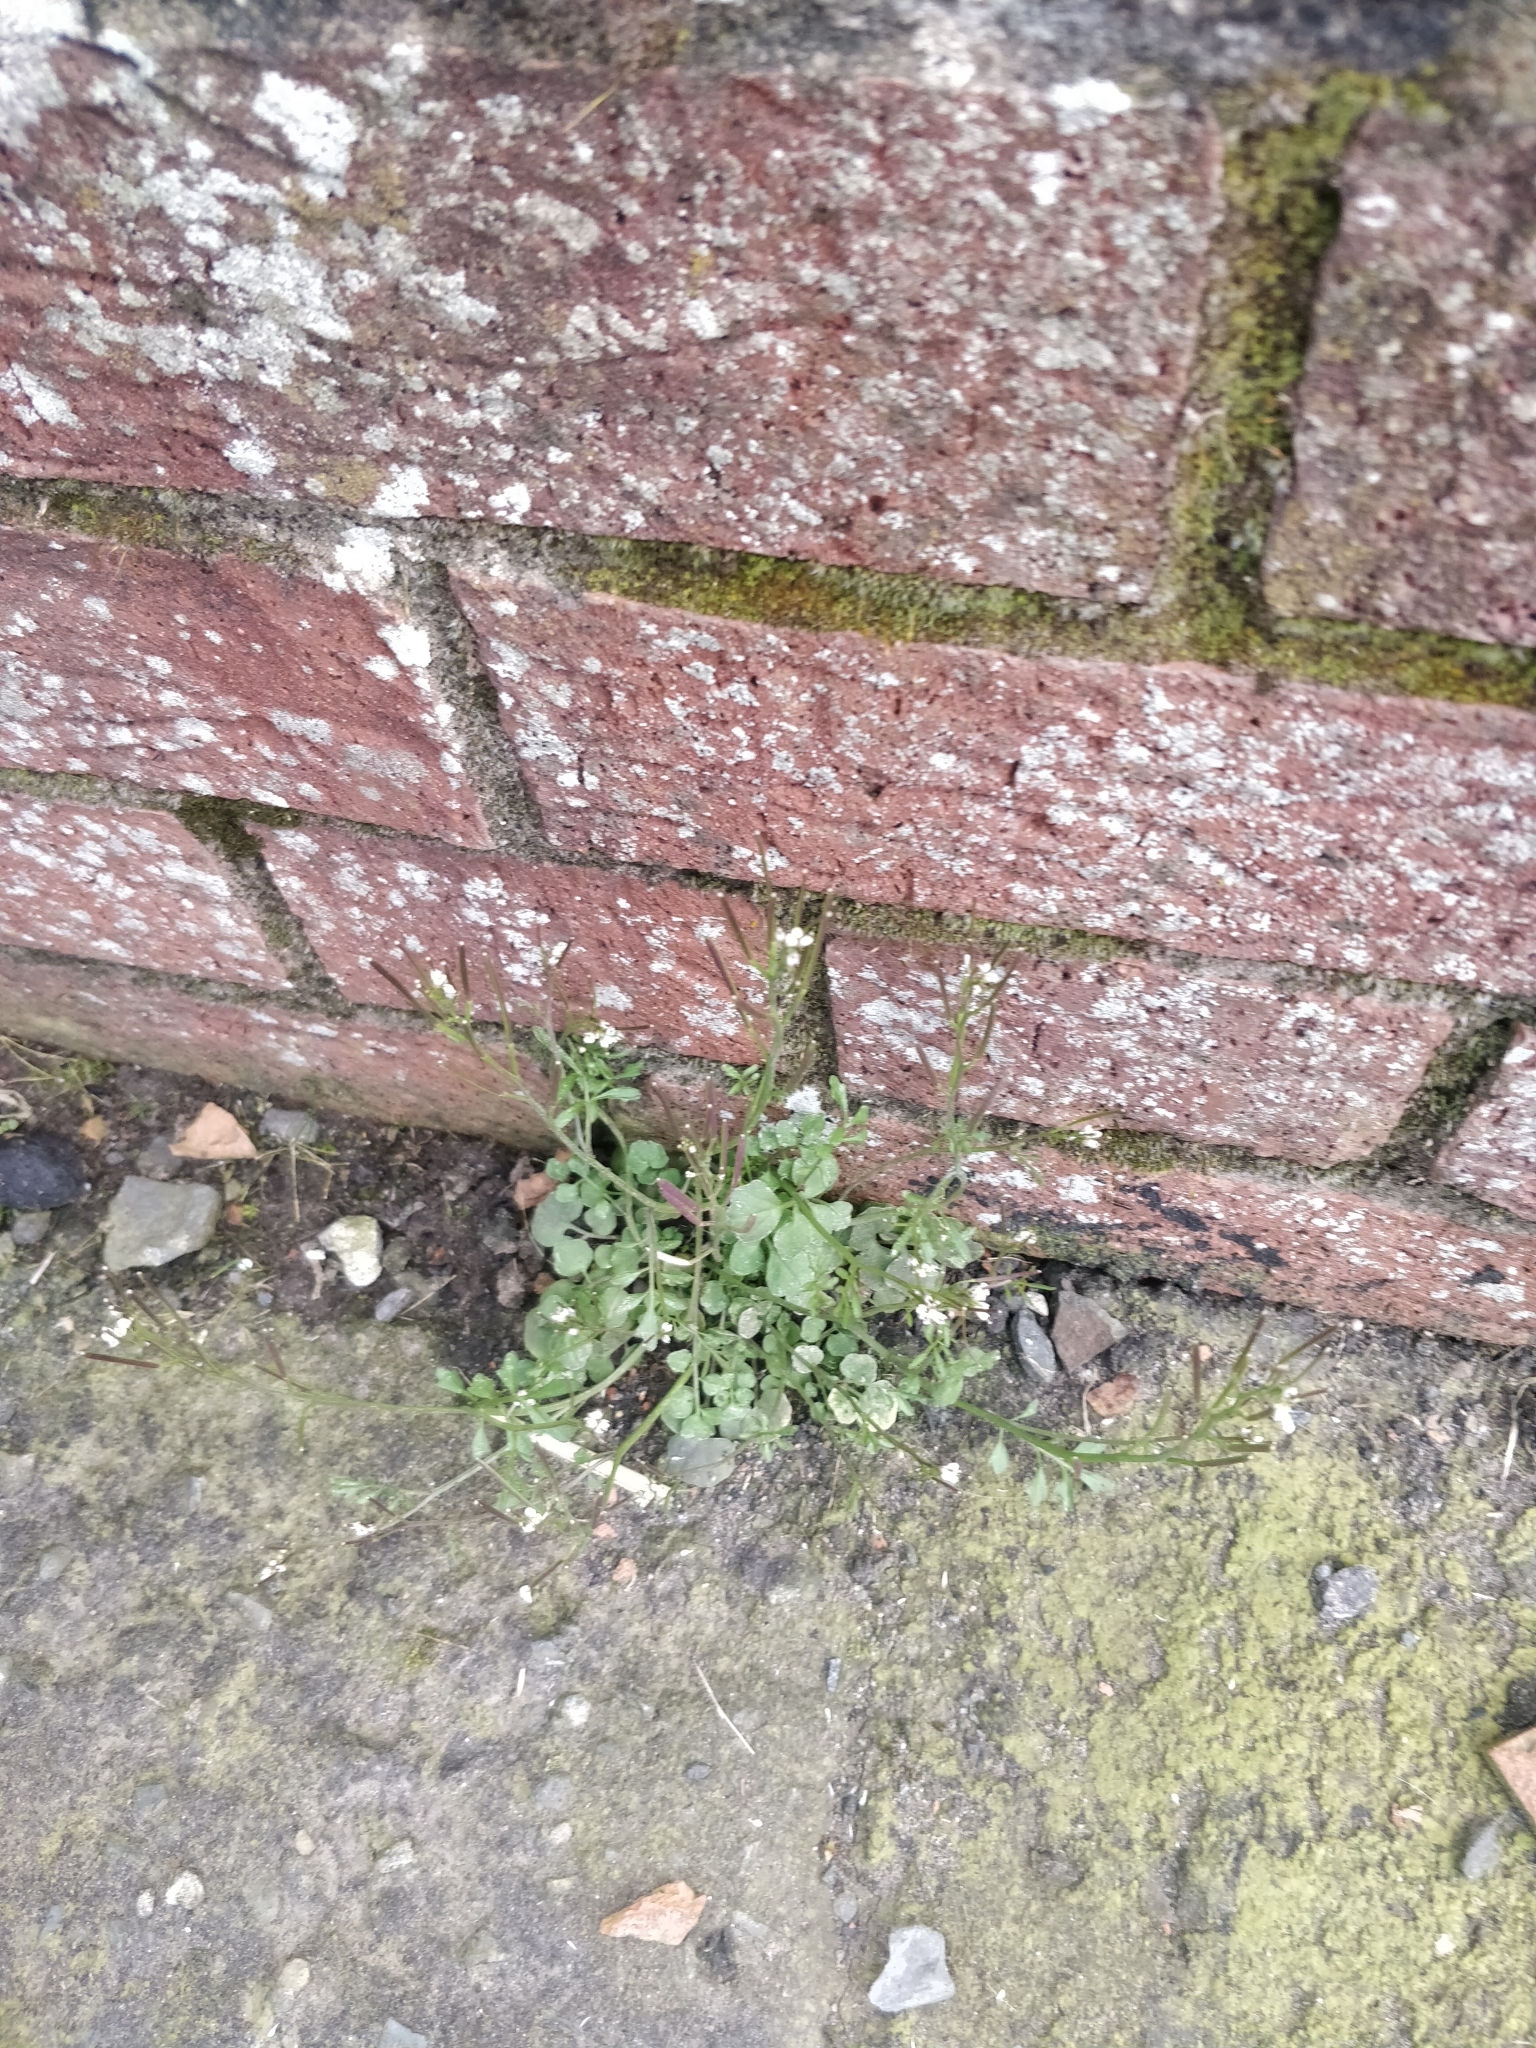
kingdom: Plantae
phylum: Tracheophyta
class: Magnoliopsida
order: Brassicales
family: Brassicaceae
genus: Cardamine
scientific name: Cardamine hirsuta
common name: Hairy bittercress
